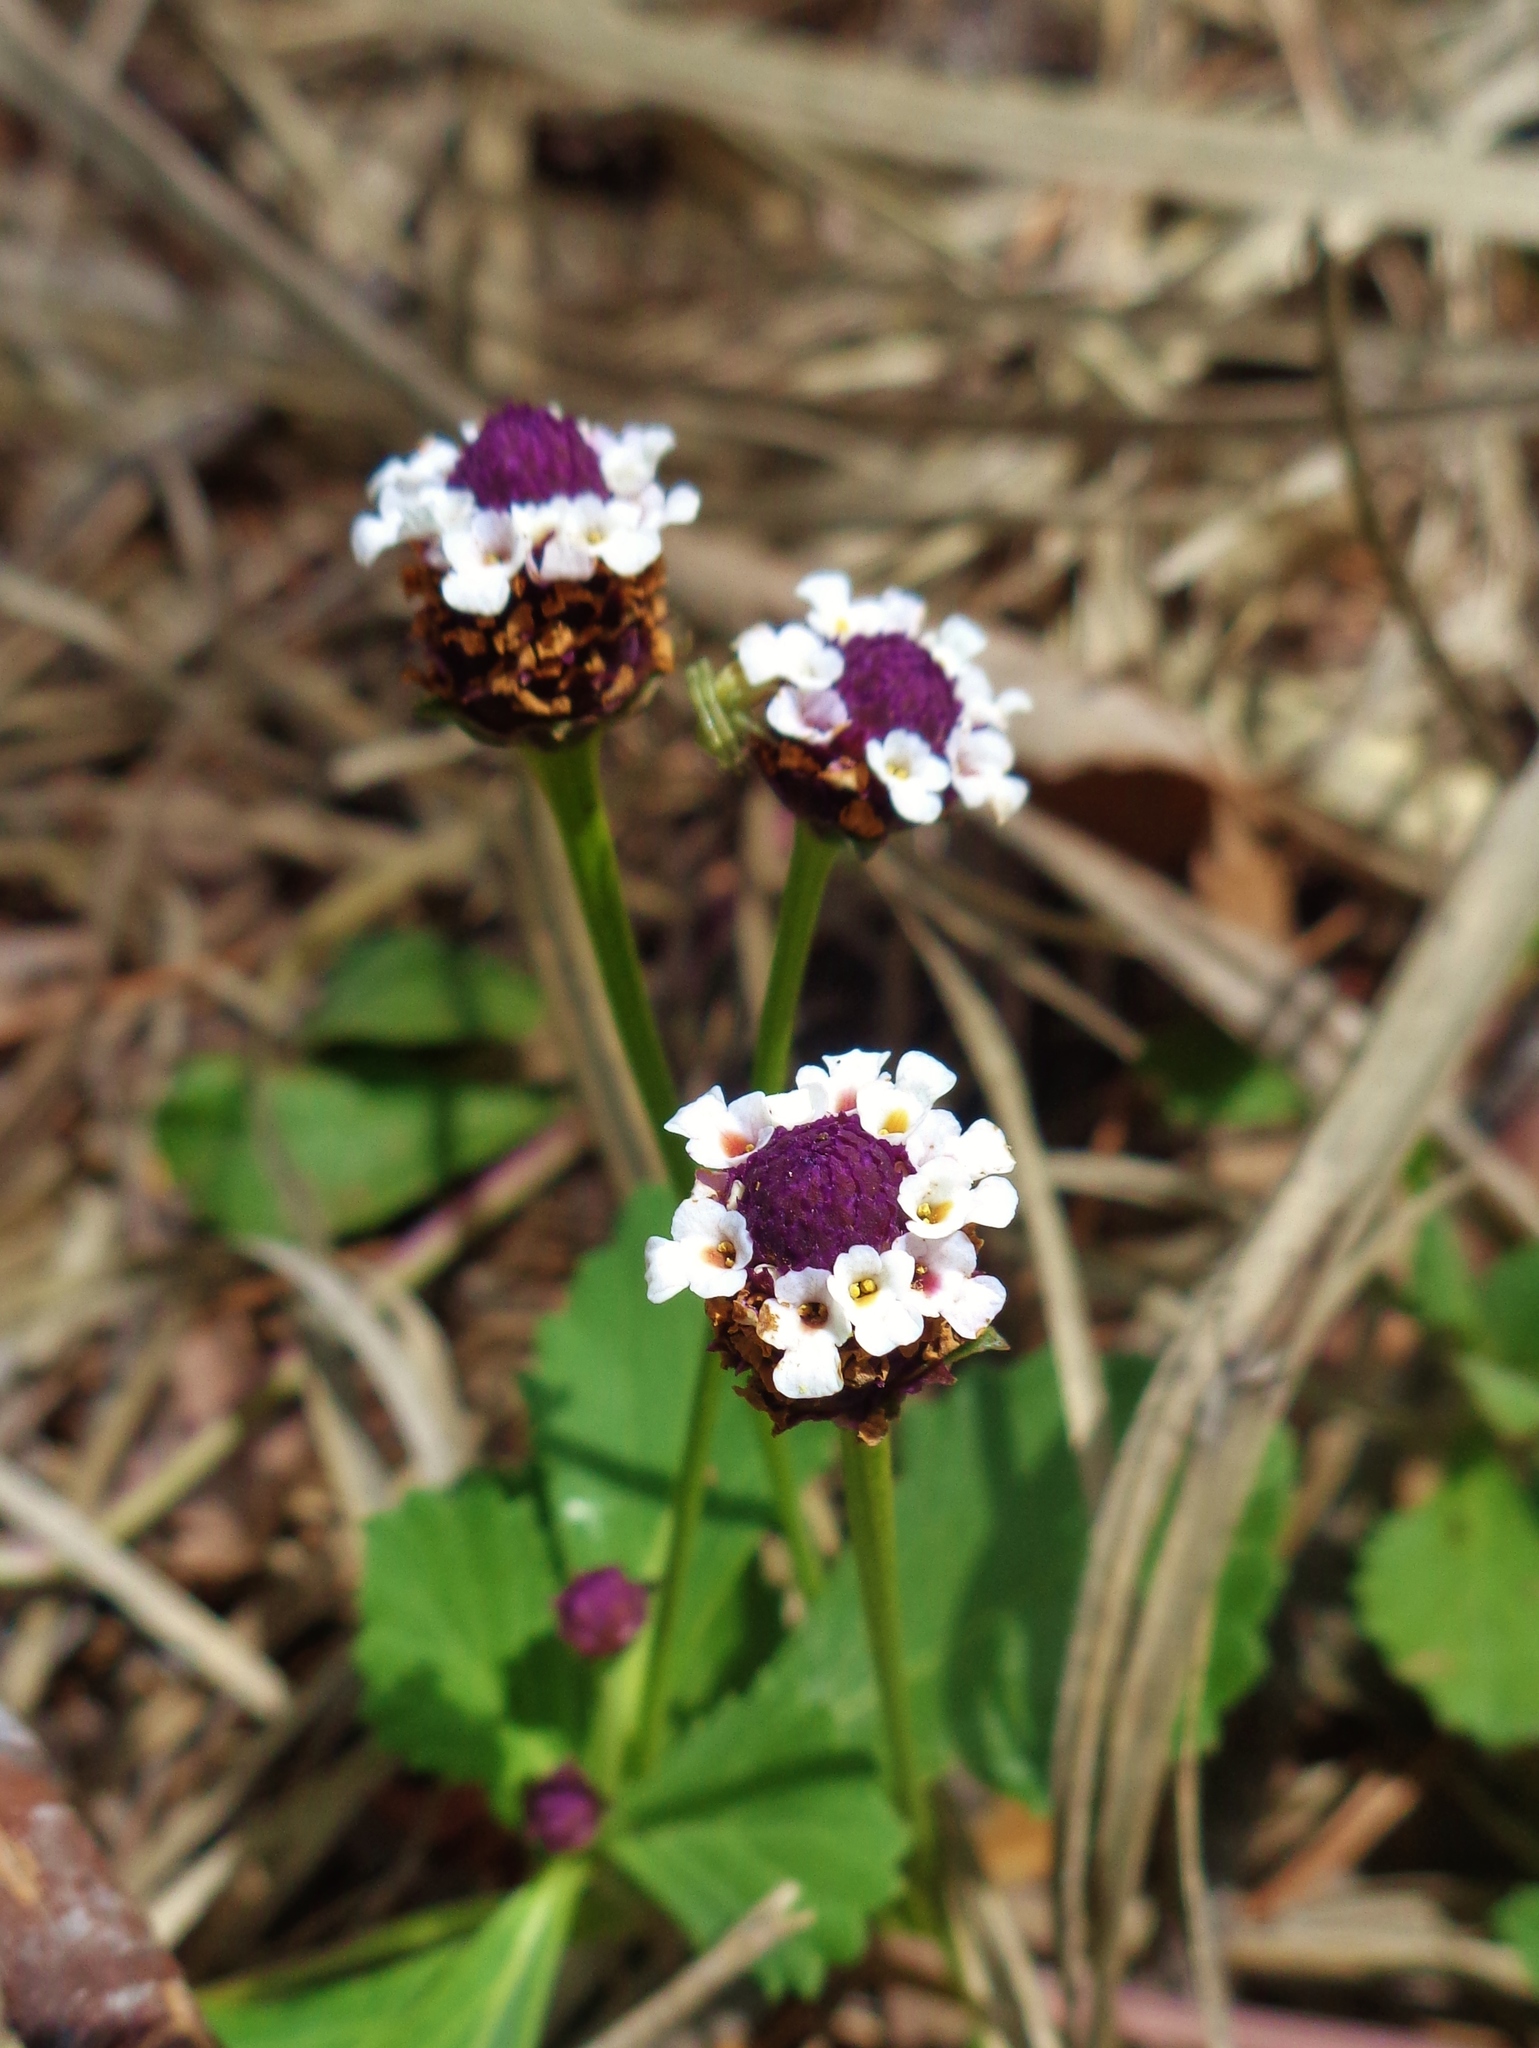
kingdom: Plantae
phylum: Tracheophyta
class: Magnoliopsida
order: Lamiales
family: Verbenaceae
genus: Phyla
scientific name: Phyla nodiflora
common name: Frogfruit
